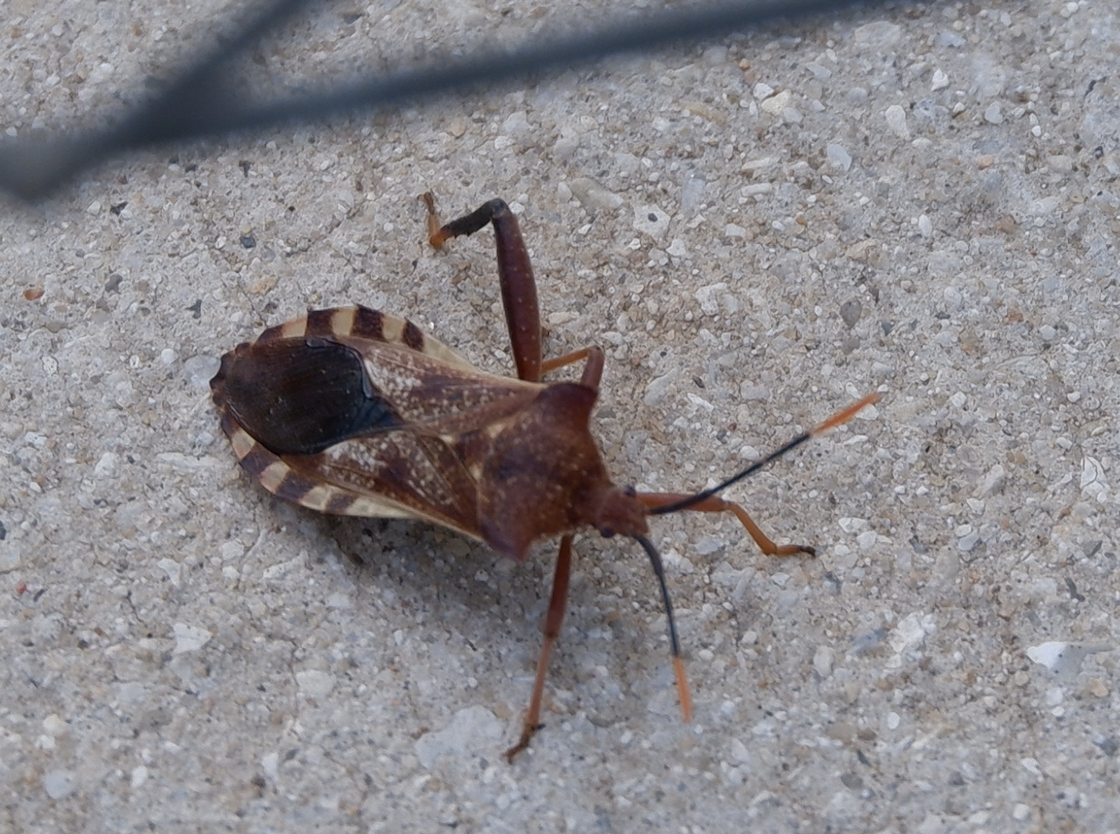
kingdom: Animalia
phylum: Arthropoda
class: Insecta
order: Hemiptera
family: Coreidae
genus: Mozena
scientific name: Mozena lunata
